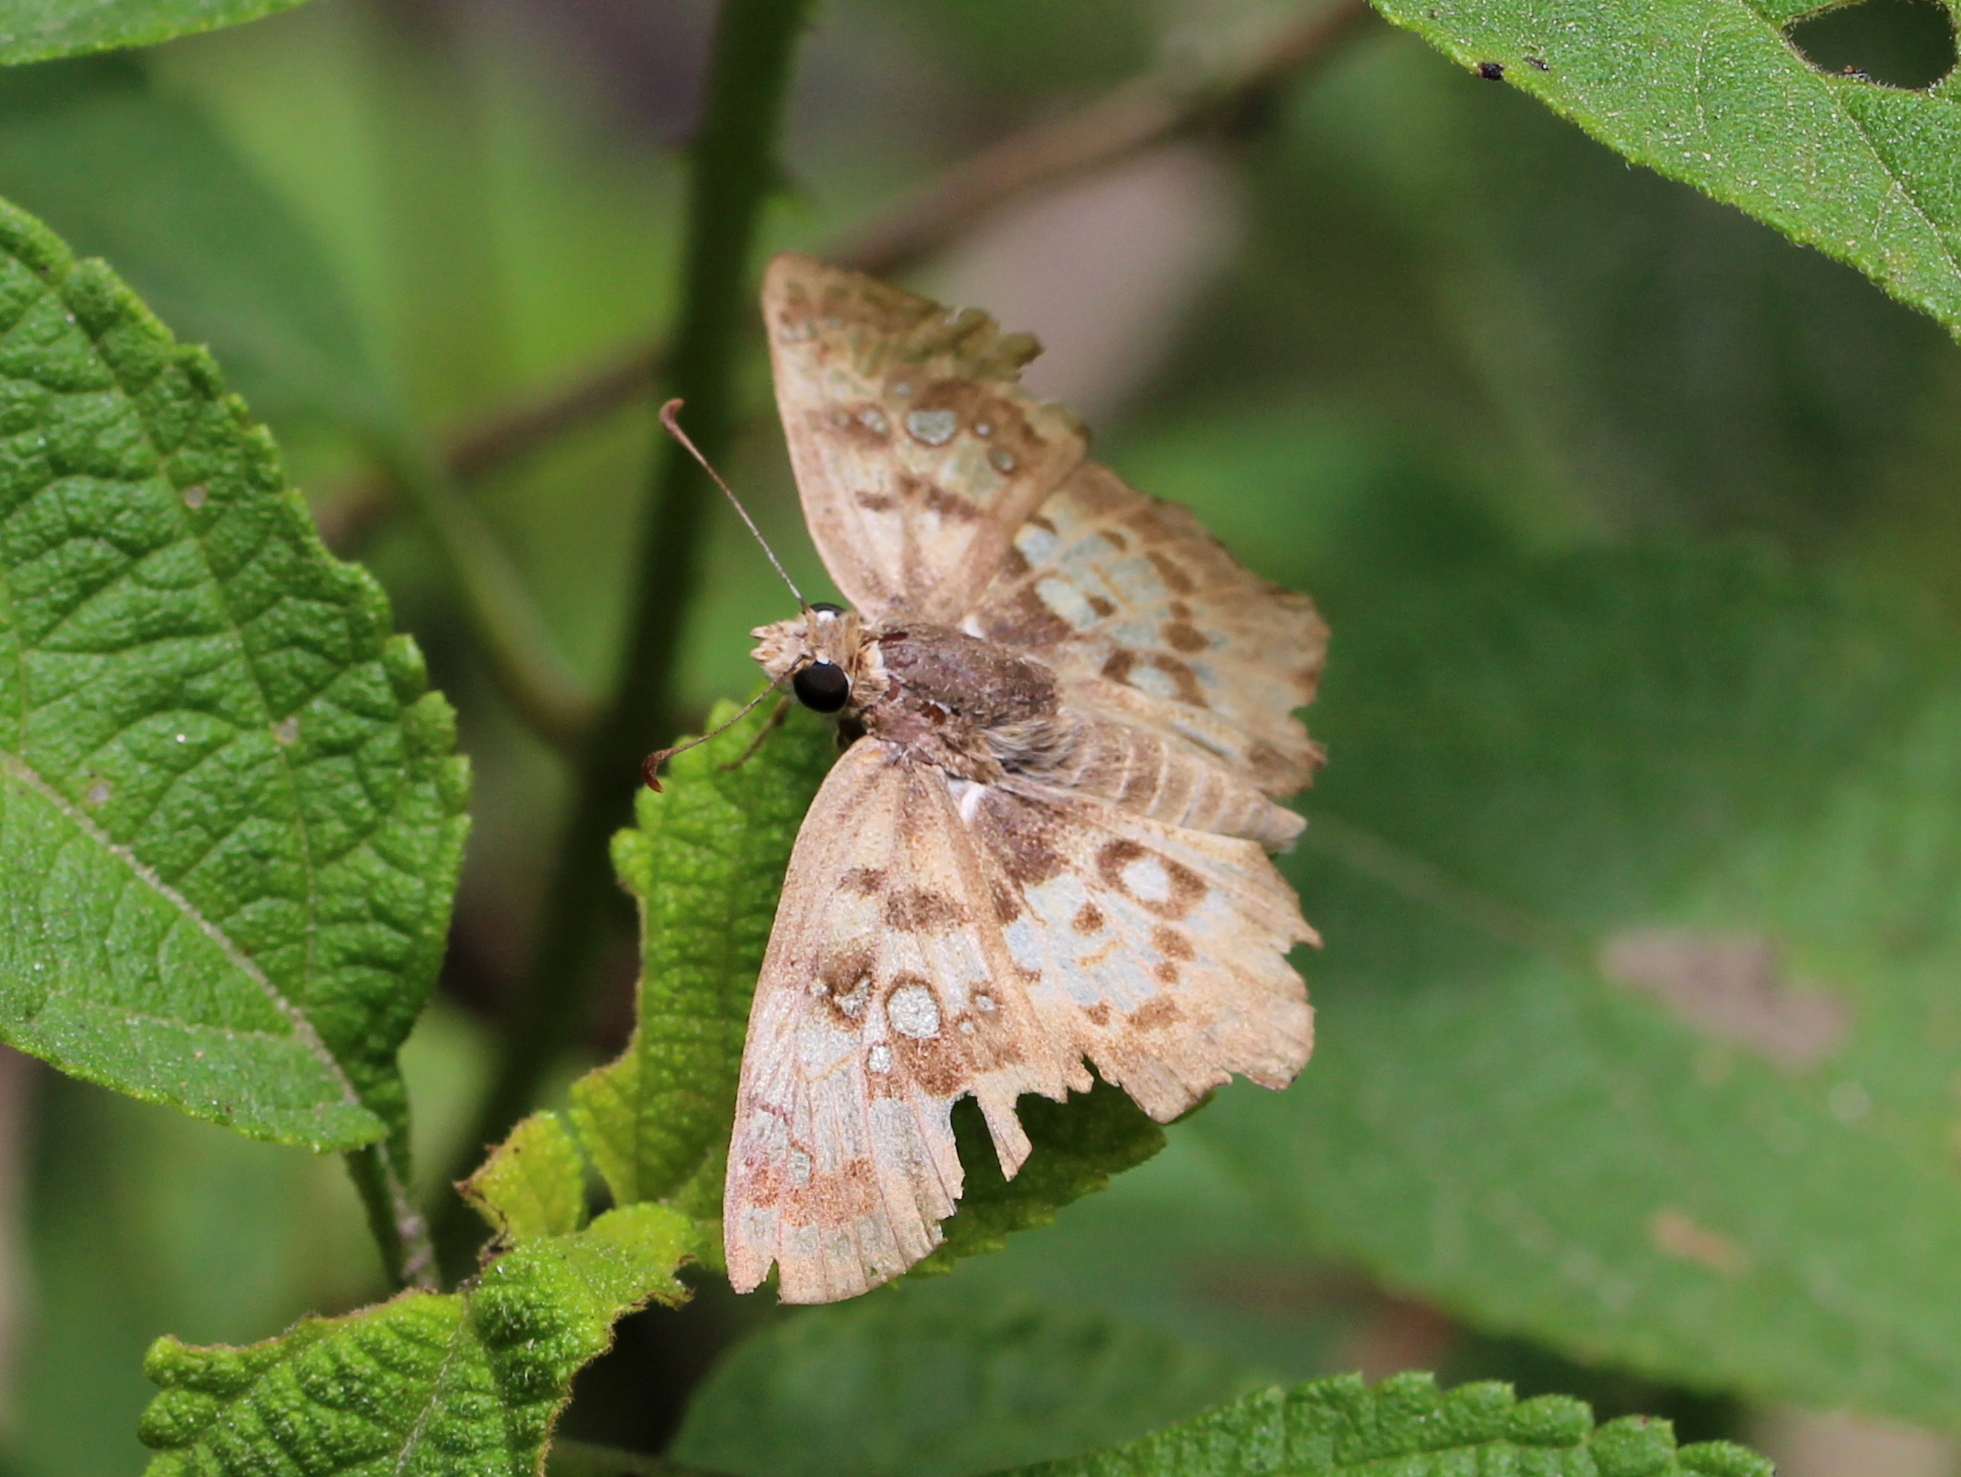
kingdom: Animalia
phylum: Arthropoda
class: Insecta
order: Lepidoptera
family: Hesperiidae
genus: Caprona
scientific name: Caprona ransonnettii
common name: Golden angle
